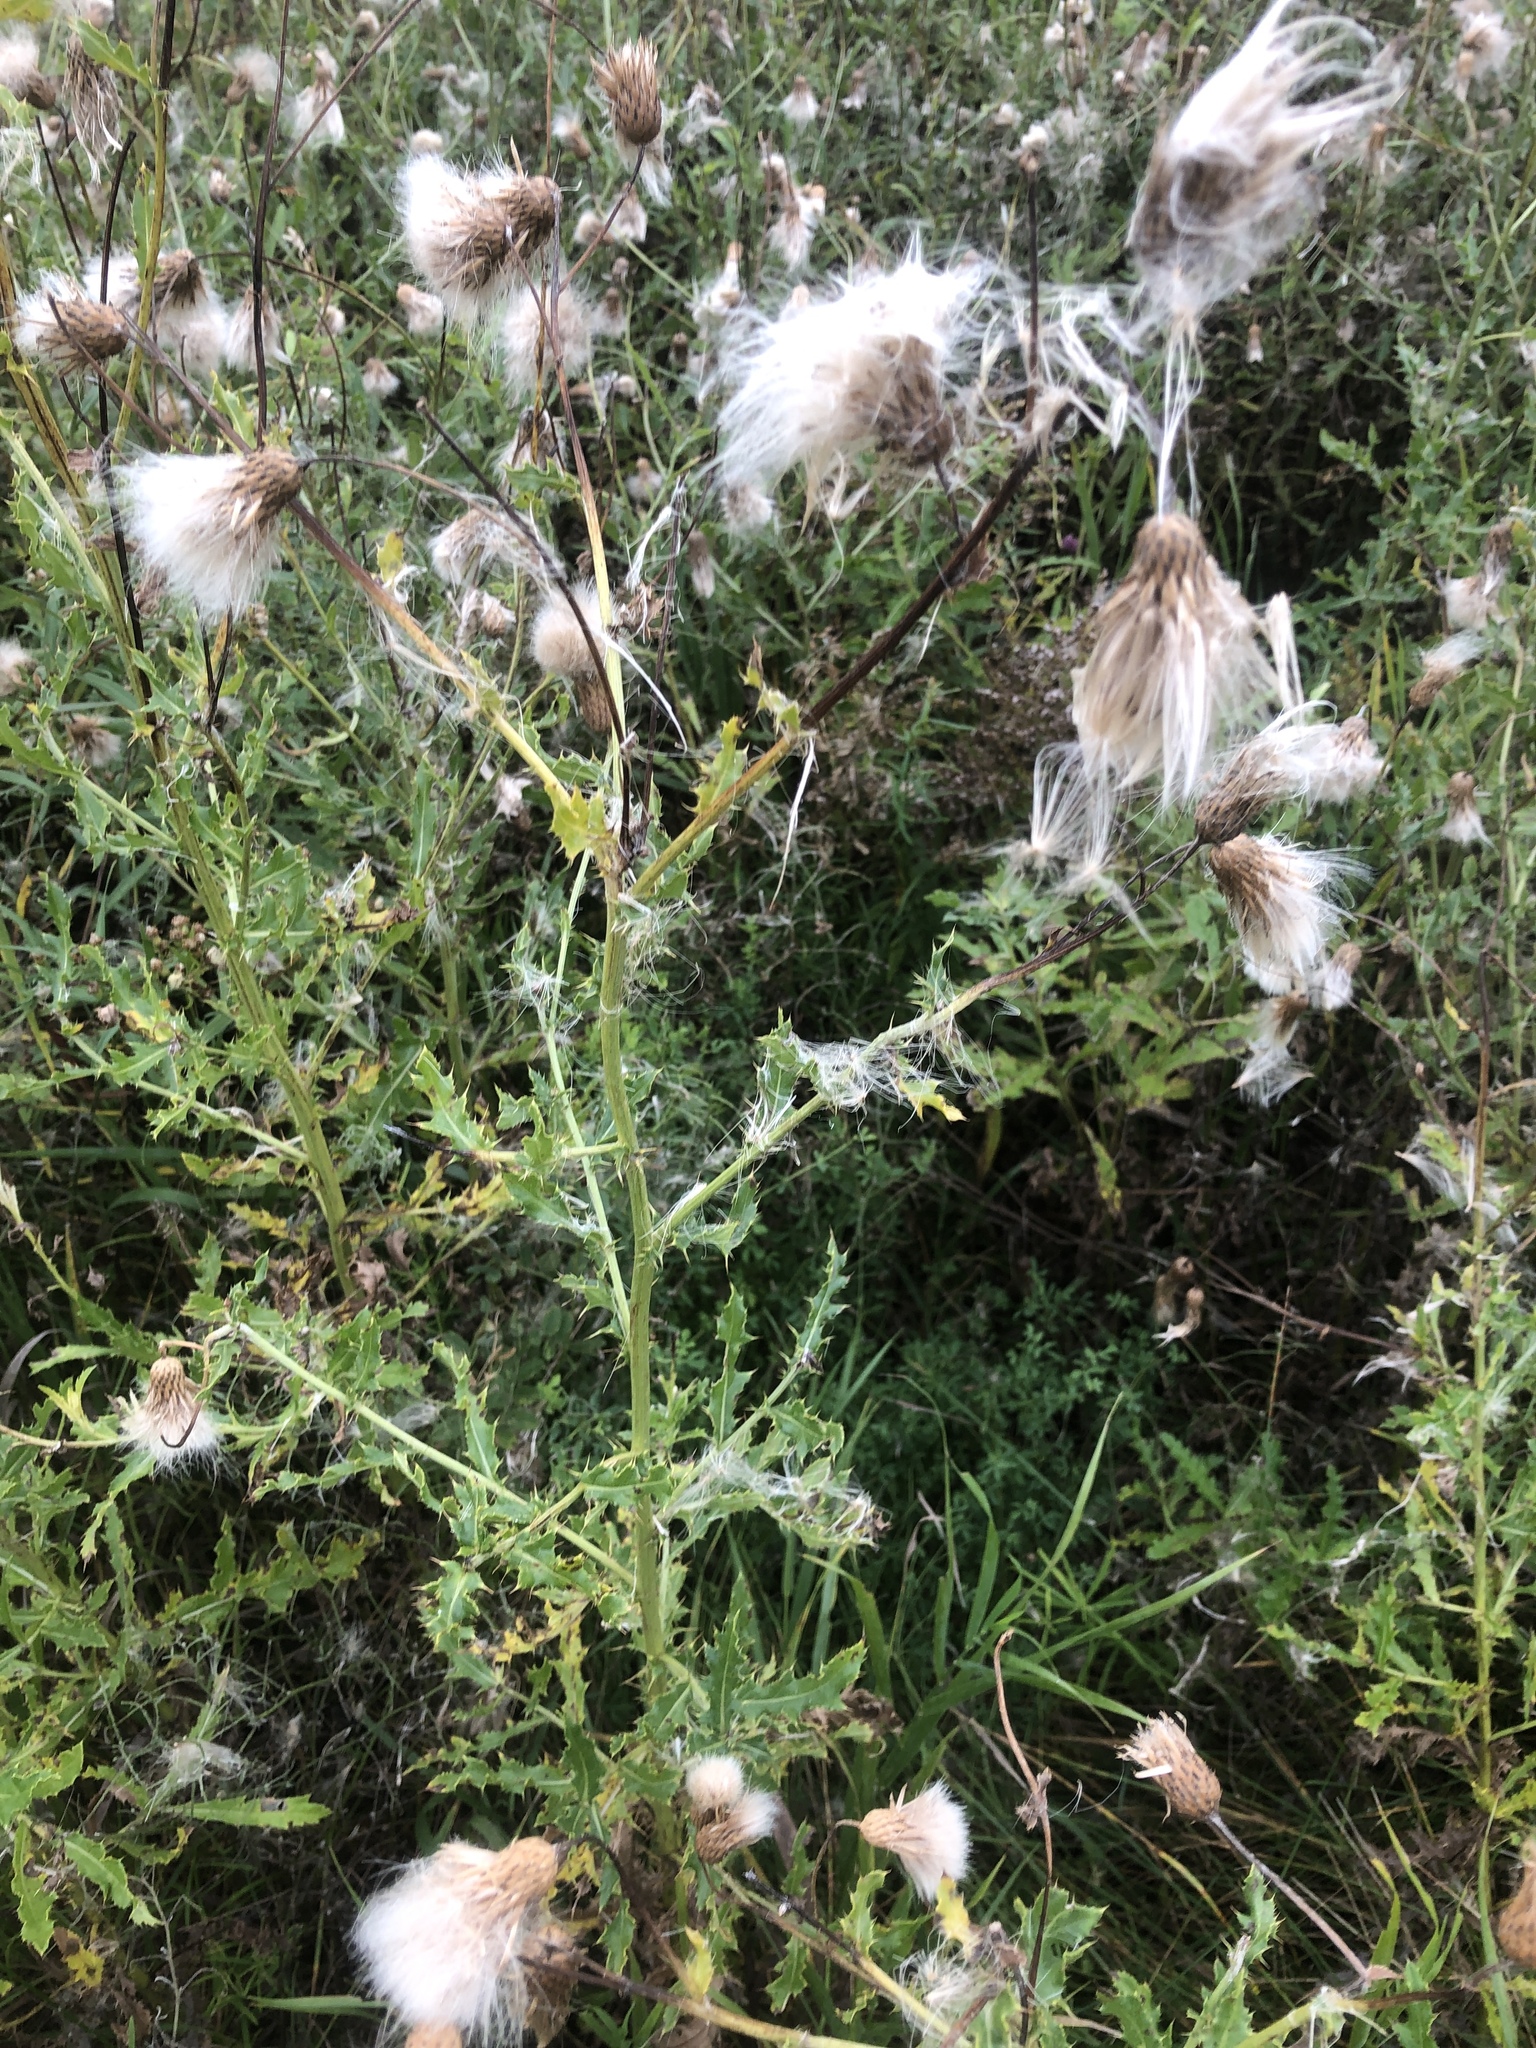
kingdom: Plantae
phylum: Tracheophyta
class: Magnoliopsida
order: Asterales
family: Asteraceae
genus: Cirsium
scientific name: Cirsium arvense
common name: Creeping thistle
